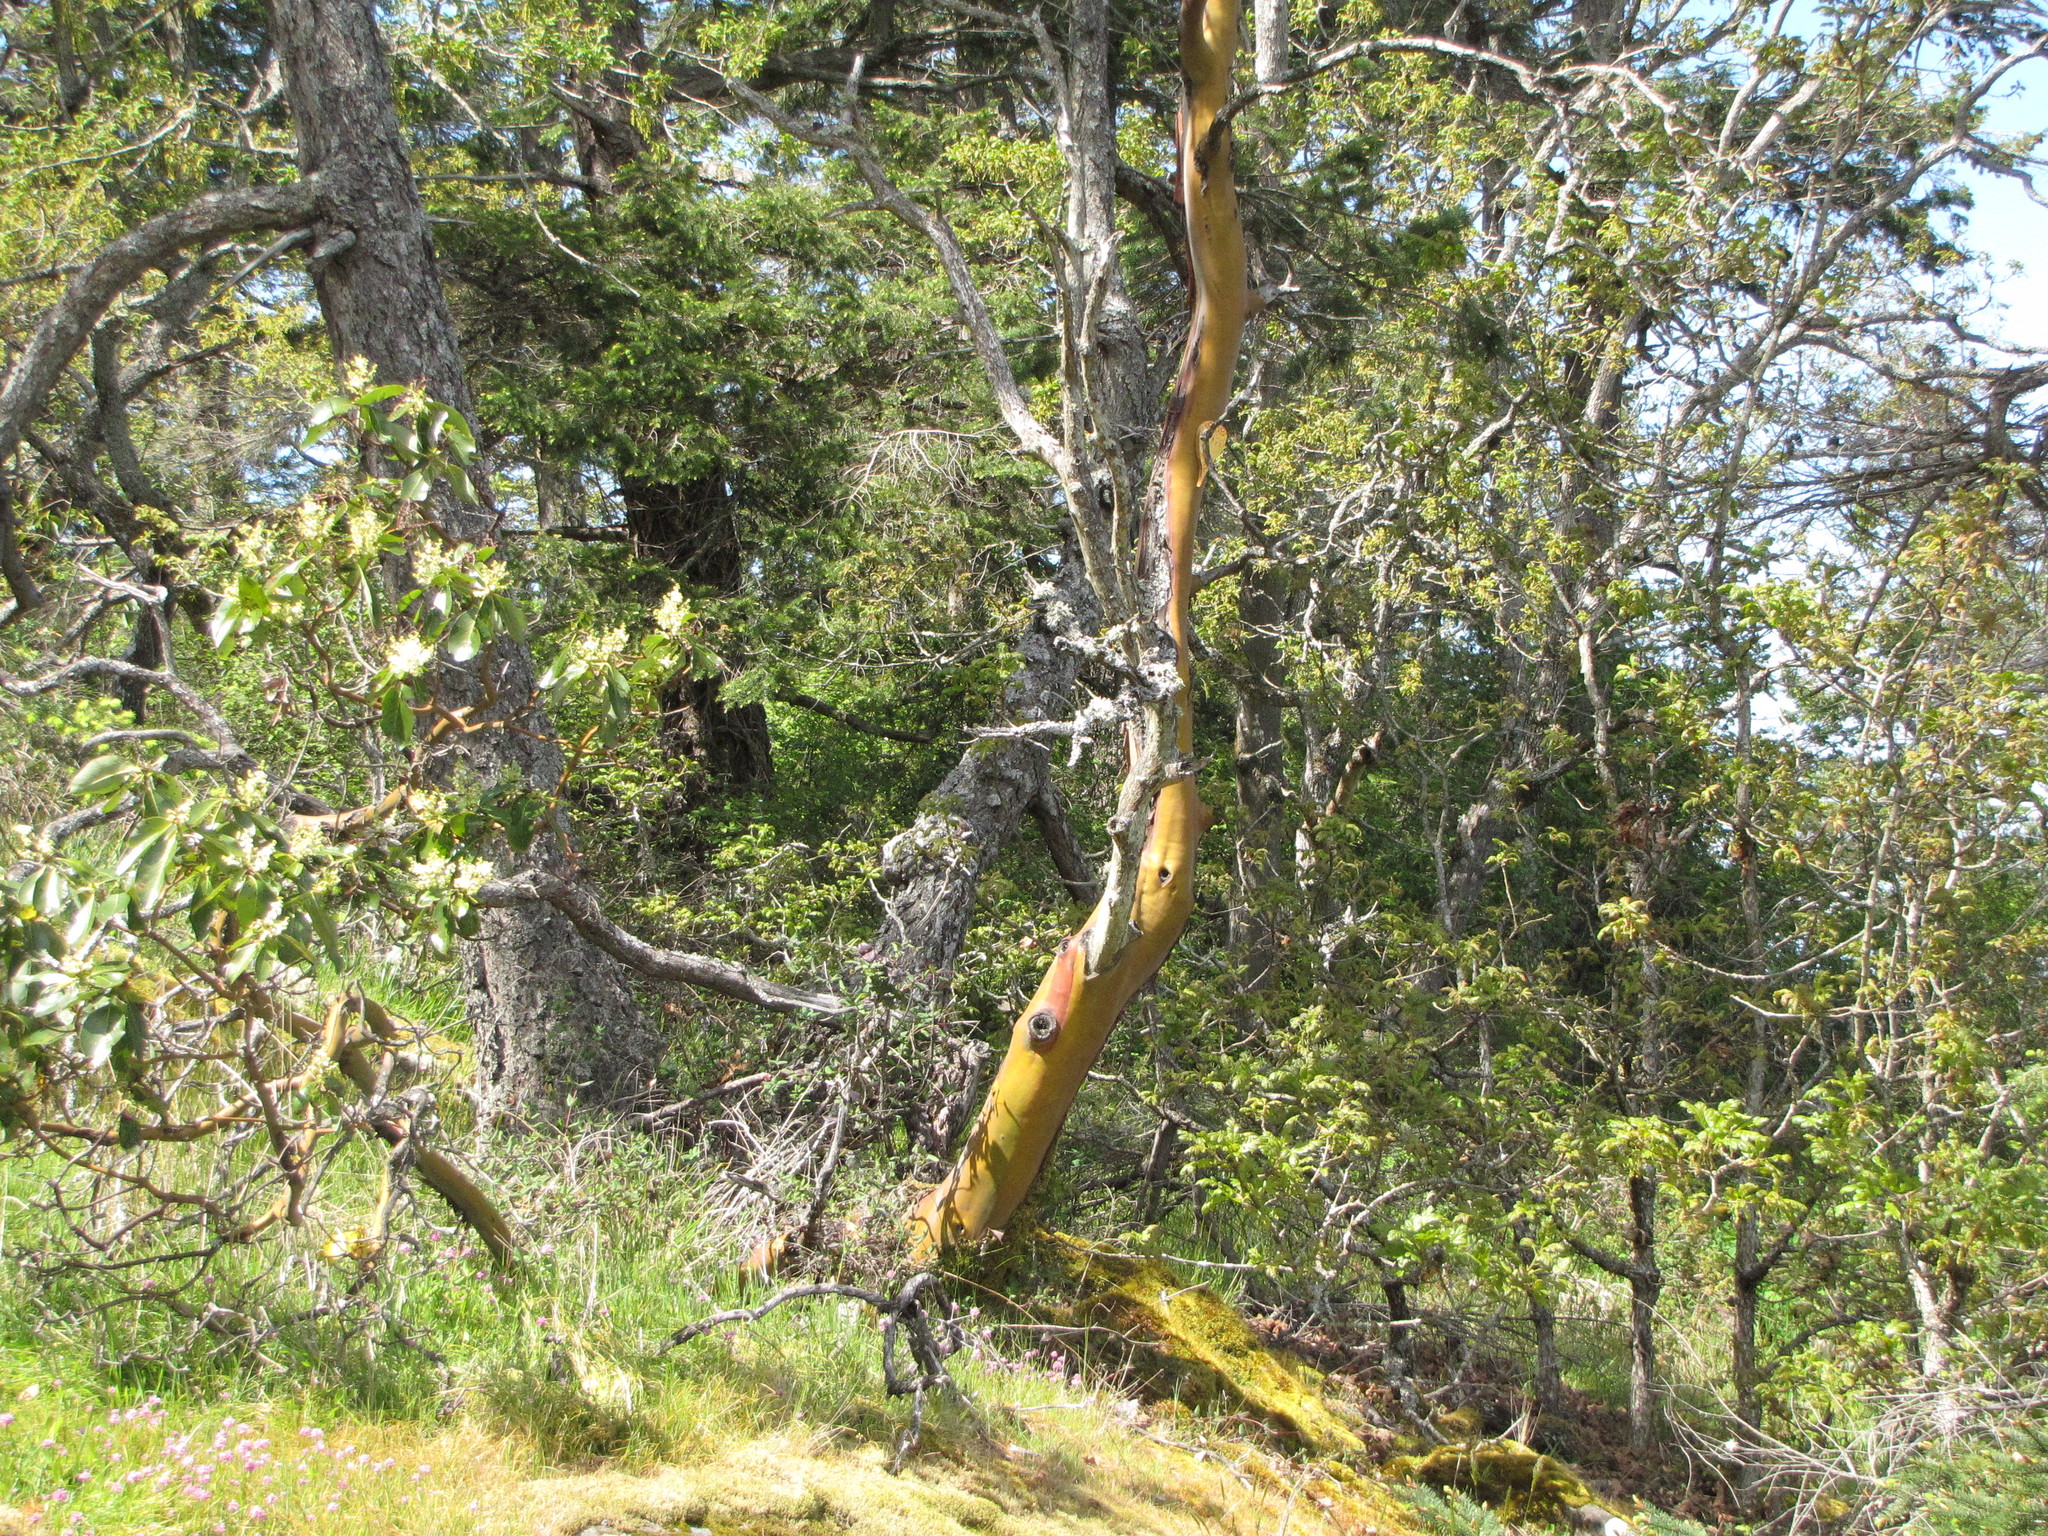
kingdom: Plantae
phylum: Tracheophyta
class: Magnoliopsida
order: Ericales
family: Ericaceae
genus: Arbutus
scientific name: Arbutus menziesii
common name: Pacific madrone
